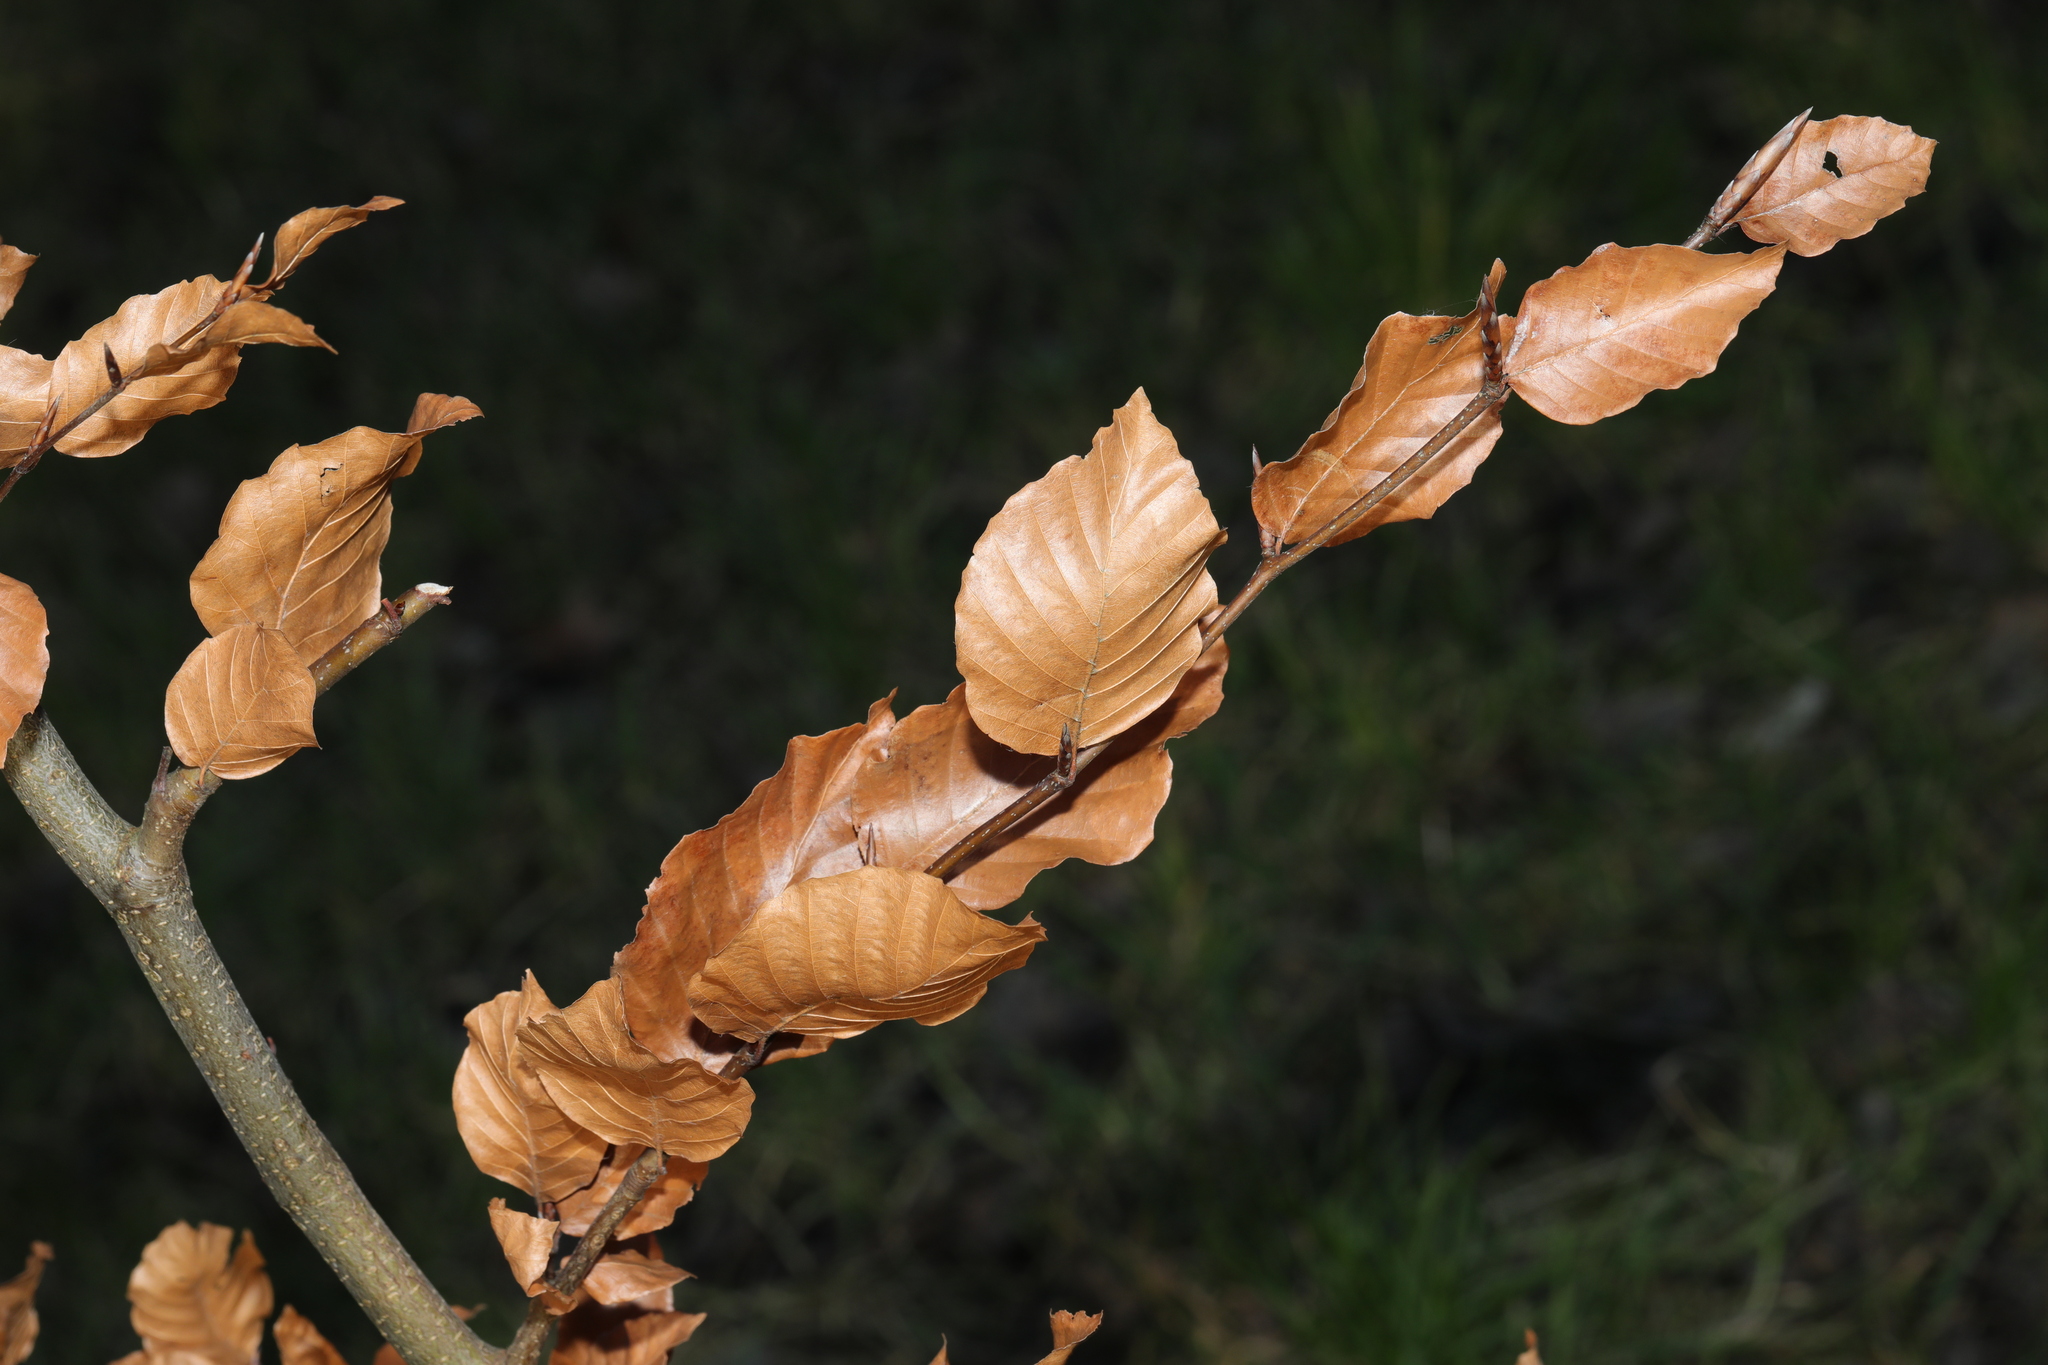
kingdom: Plantae
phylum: Tracheophyta
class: Magnoliopsida
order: Fagales
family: Fagaceae
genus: Fagus
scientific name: Fagus sylvatica
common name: Beech
